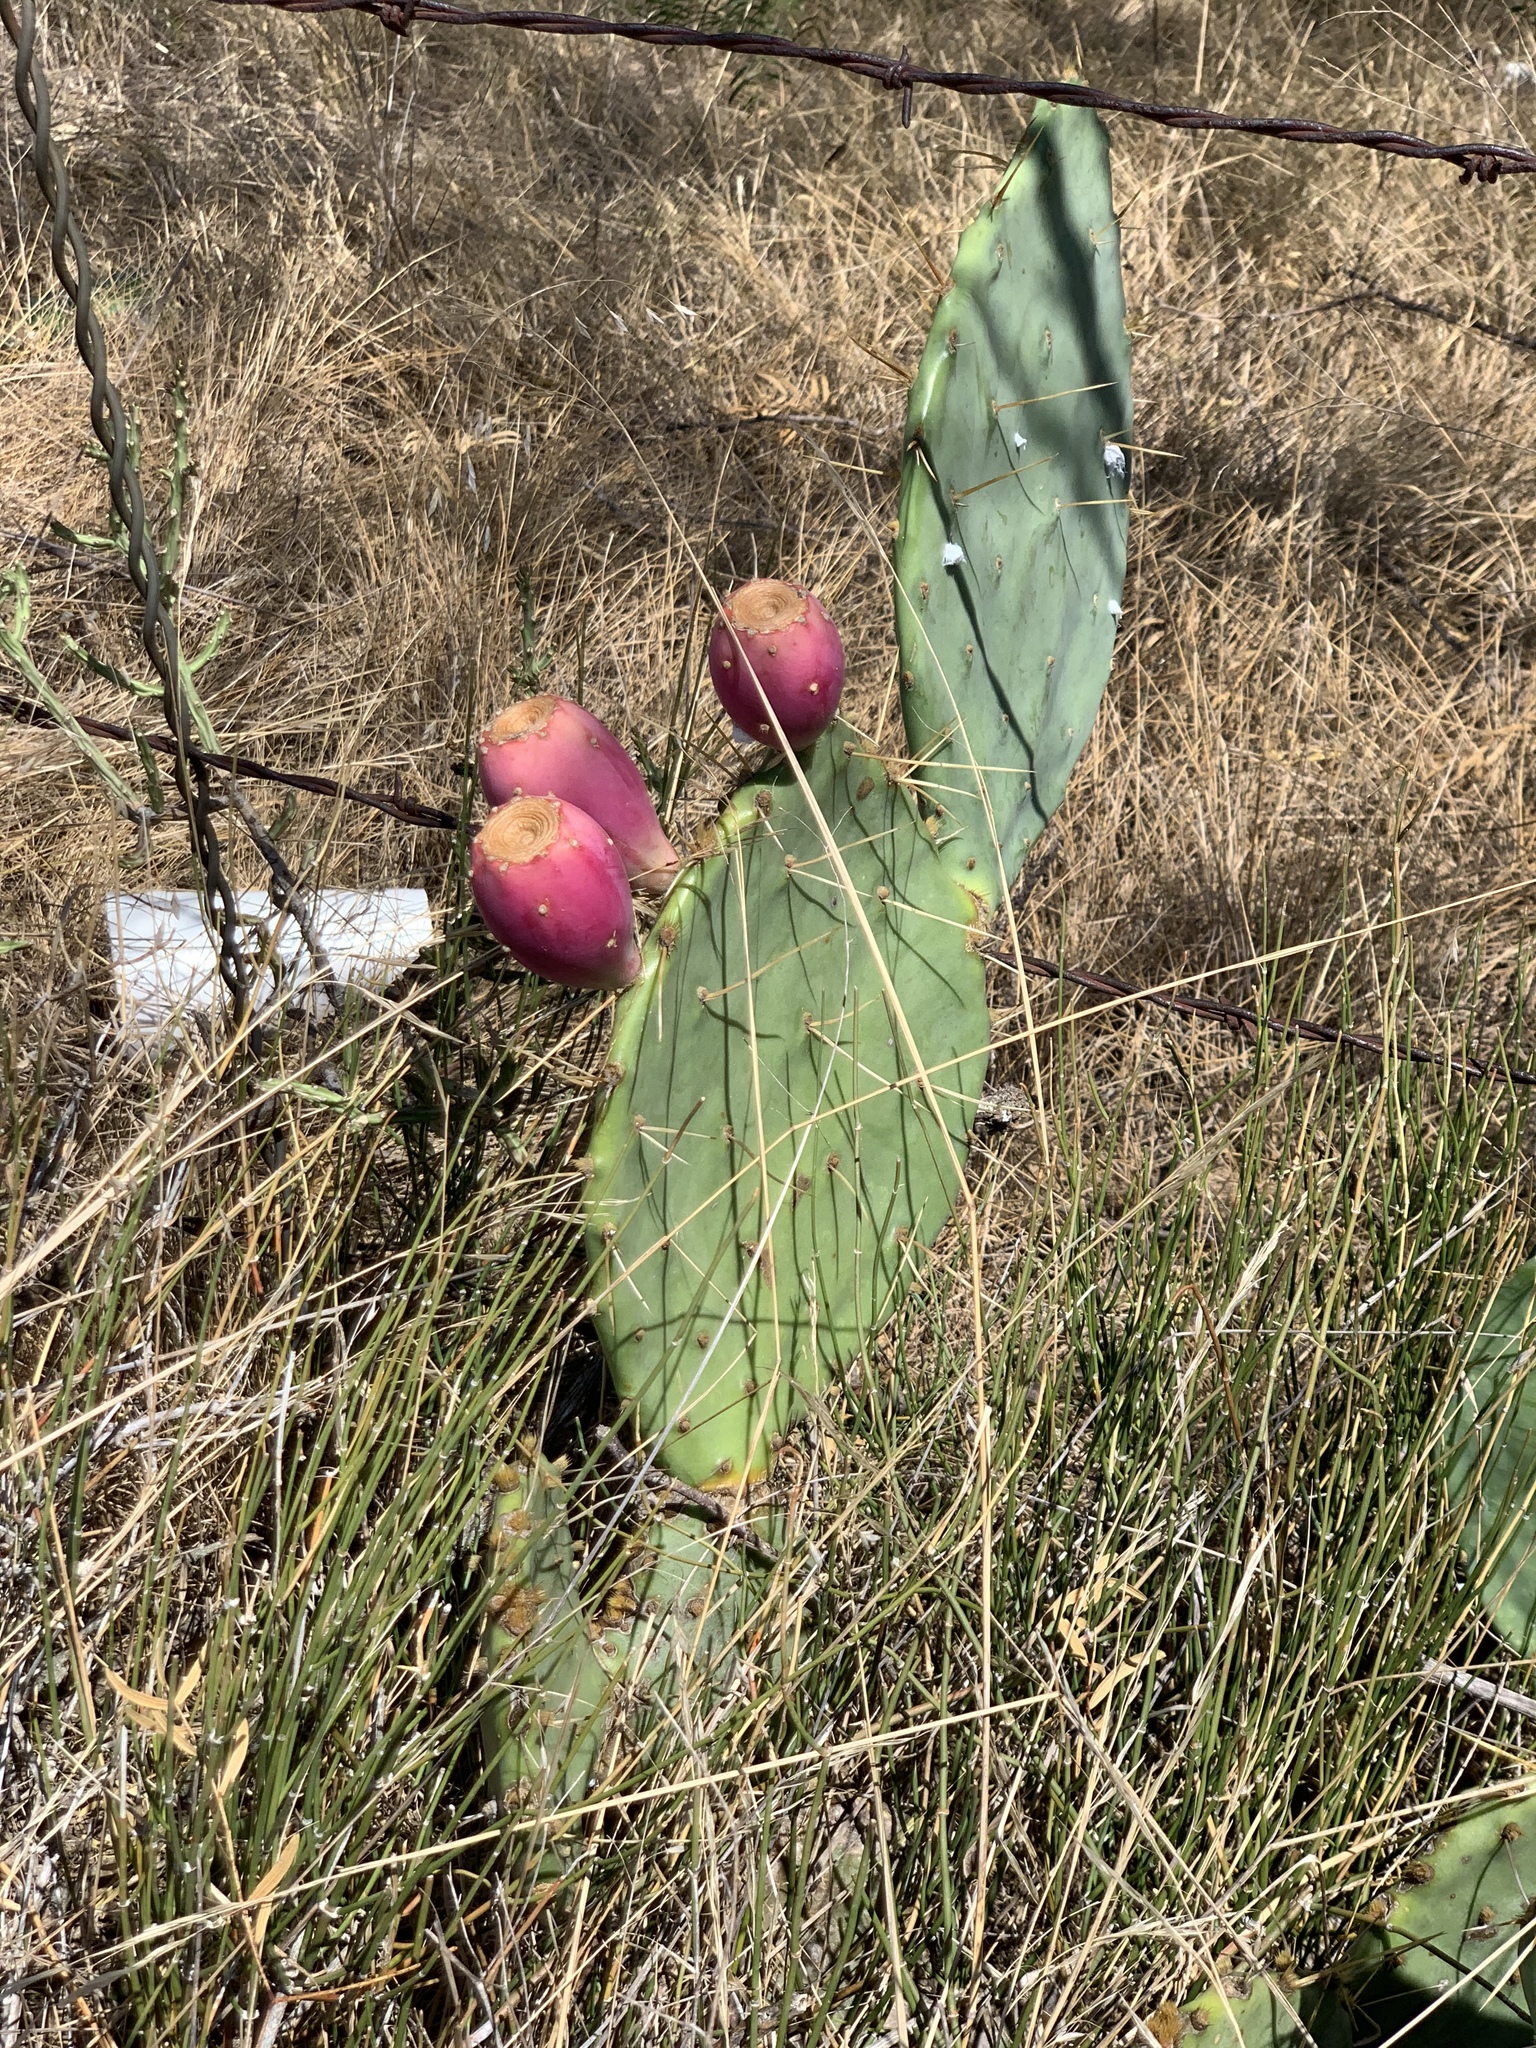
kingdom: Plantae
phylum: Tracheophyta
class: Magnoliopsida
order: Caryophyllales
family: Cactaceae
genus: Opuntia
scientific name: Opuntia engelmannii
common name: Cactus-apple
